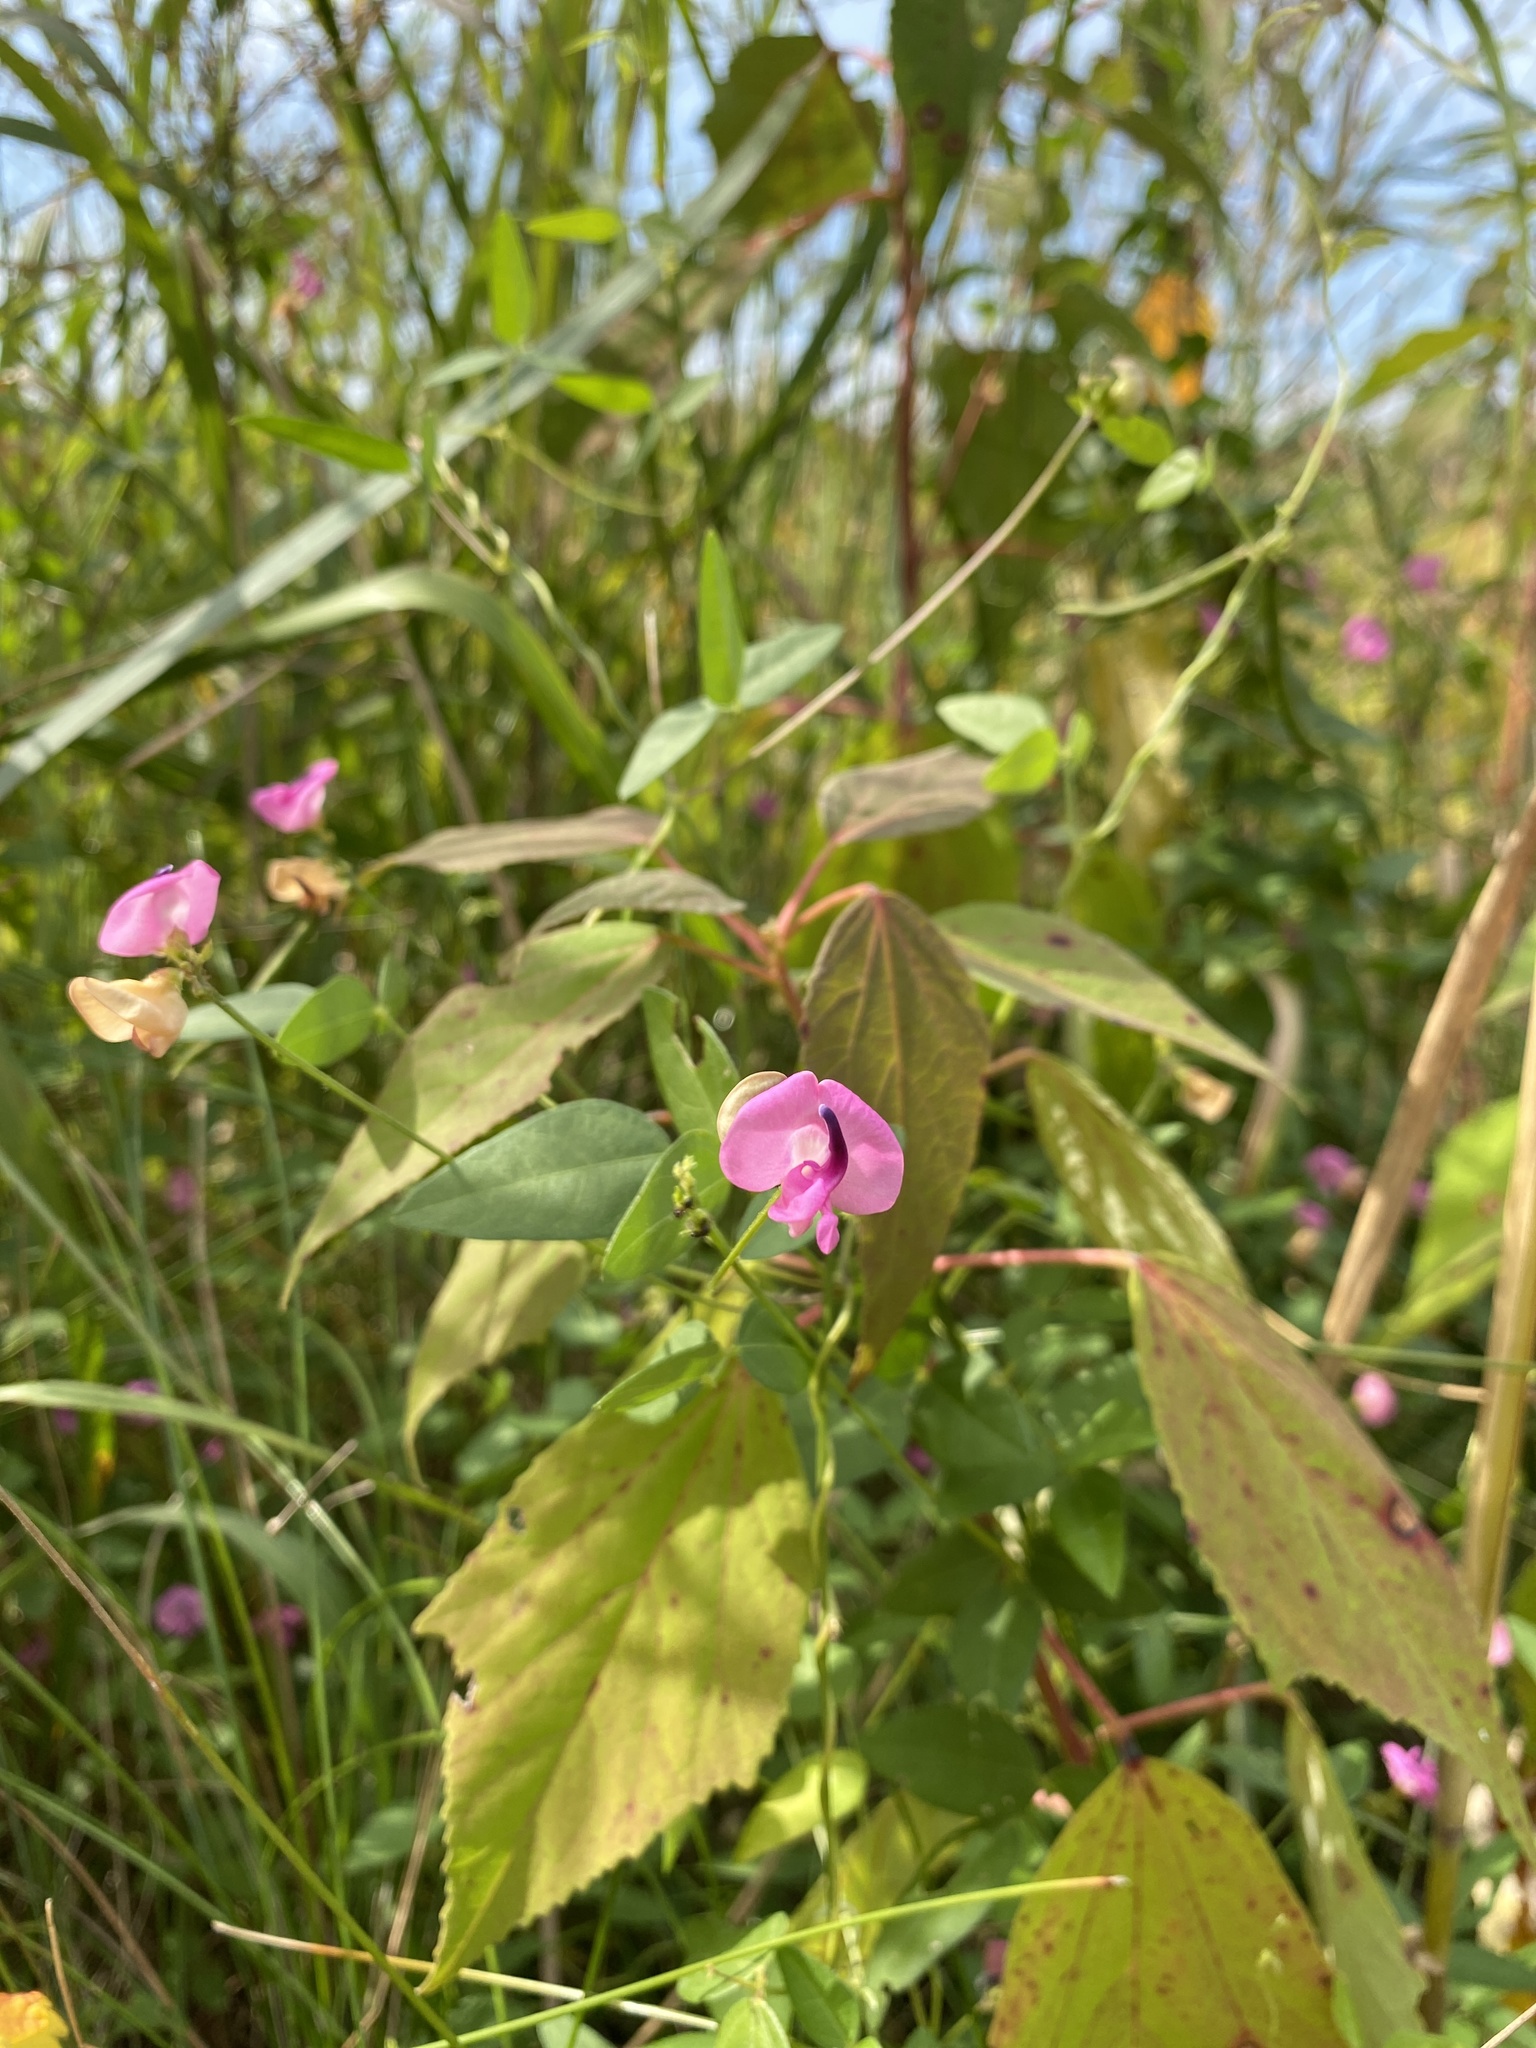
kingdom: Plantae
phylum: Tracheophyta
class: Magnoliopsida
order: Fabales
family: Fabaceae
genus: Strophostyles
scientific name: Strophostyles umbellata
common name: Perennial wild bean
